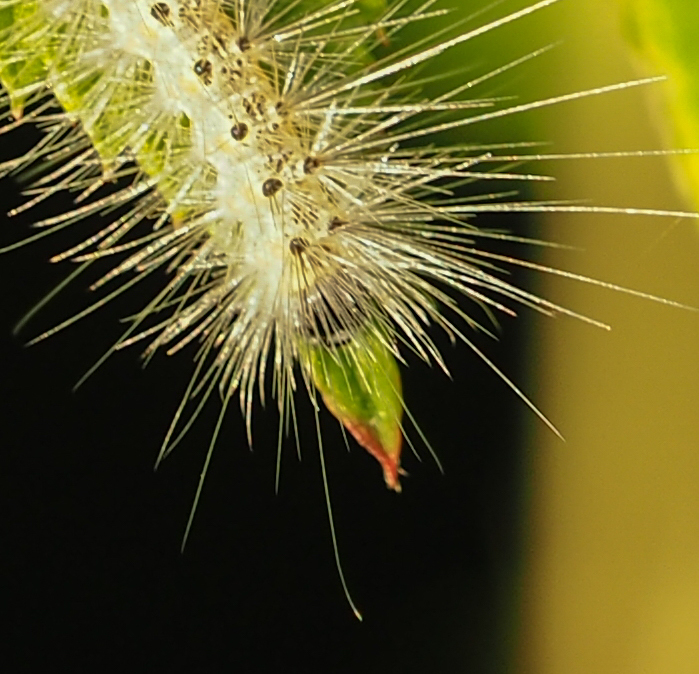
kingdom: Animalia
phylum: Arthropoda
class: Insecta
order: Lepidoptera
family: Erebidae
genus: Hyphantria
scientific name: Hyphantria cunea
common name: American white moth
